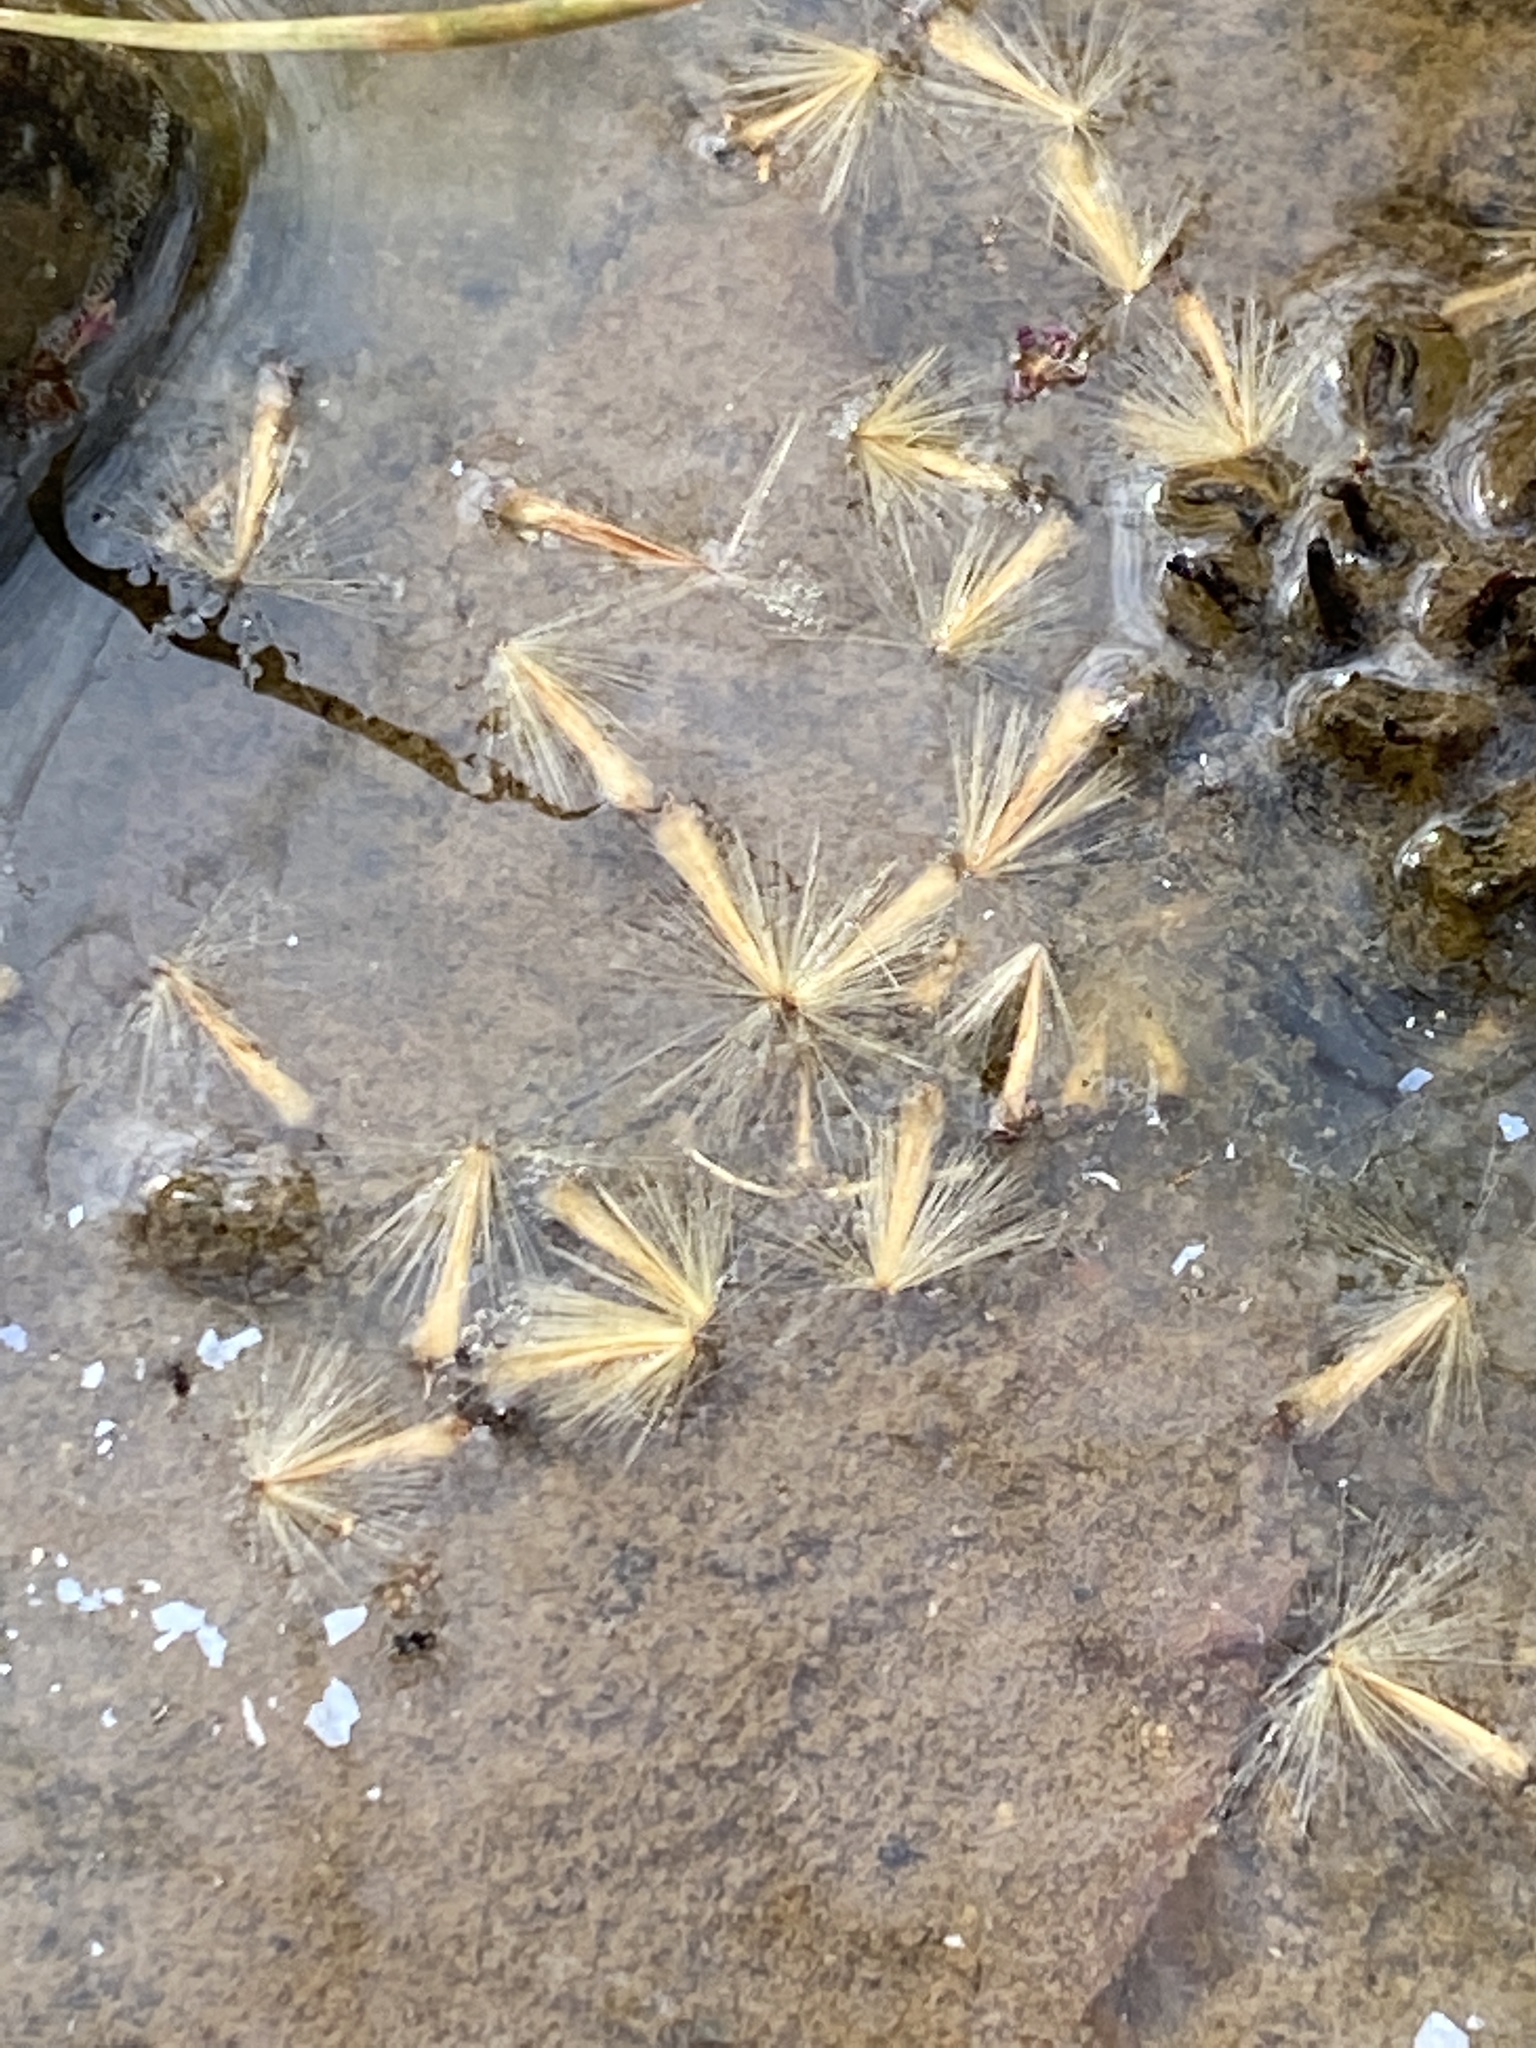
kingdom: Plantae
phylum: Tracheophyta
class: Magnoliopsida
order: Proteales
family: Platanaceae
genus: Platanus
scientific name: Platanus occidentalis
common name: American sycamore
